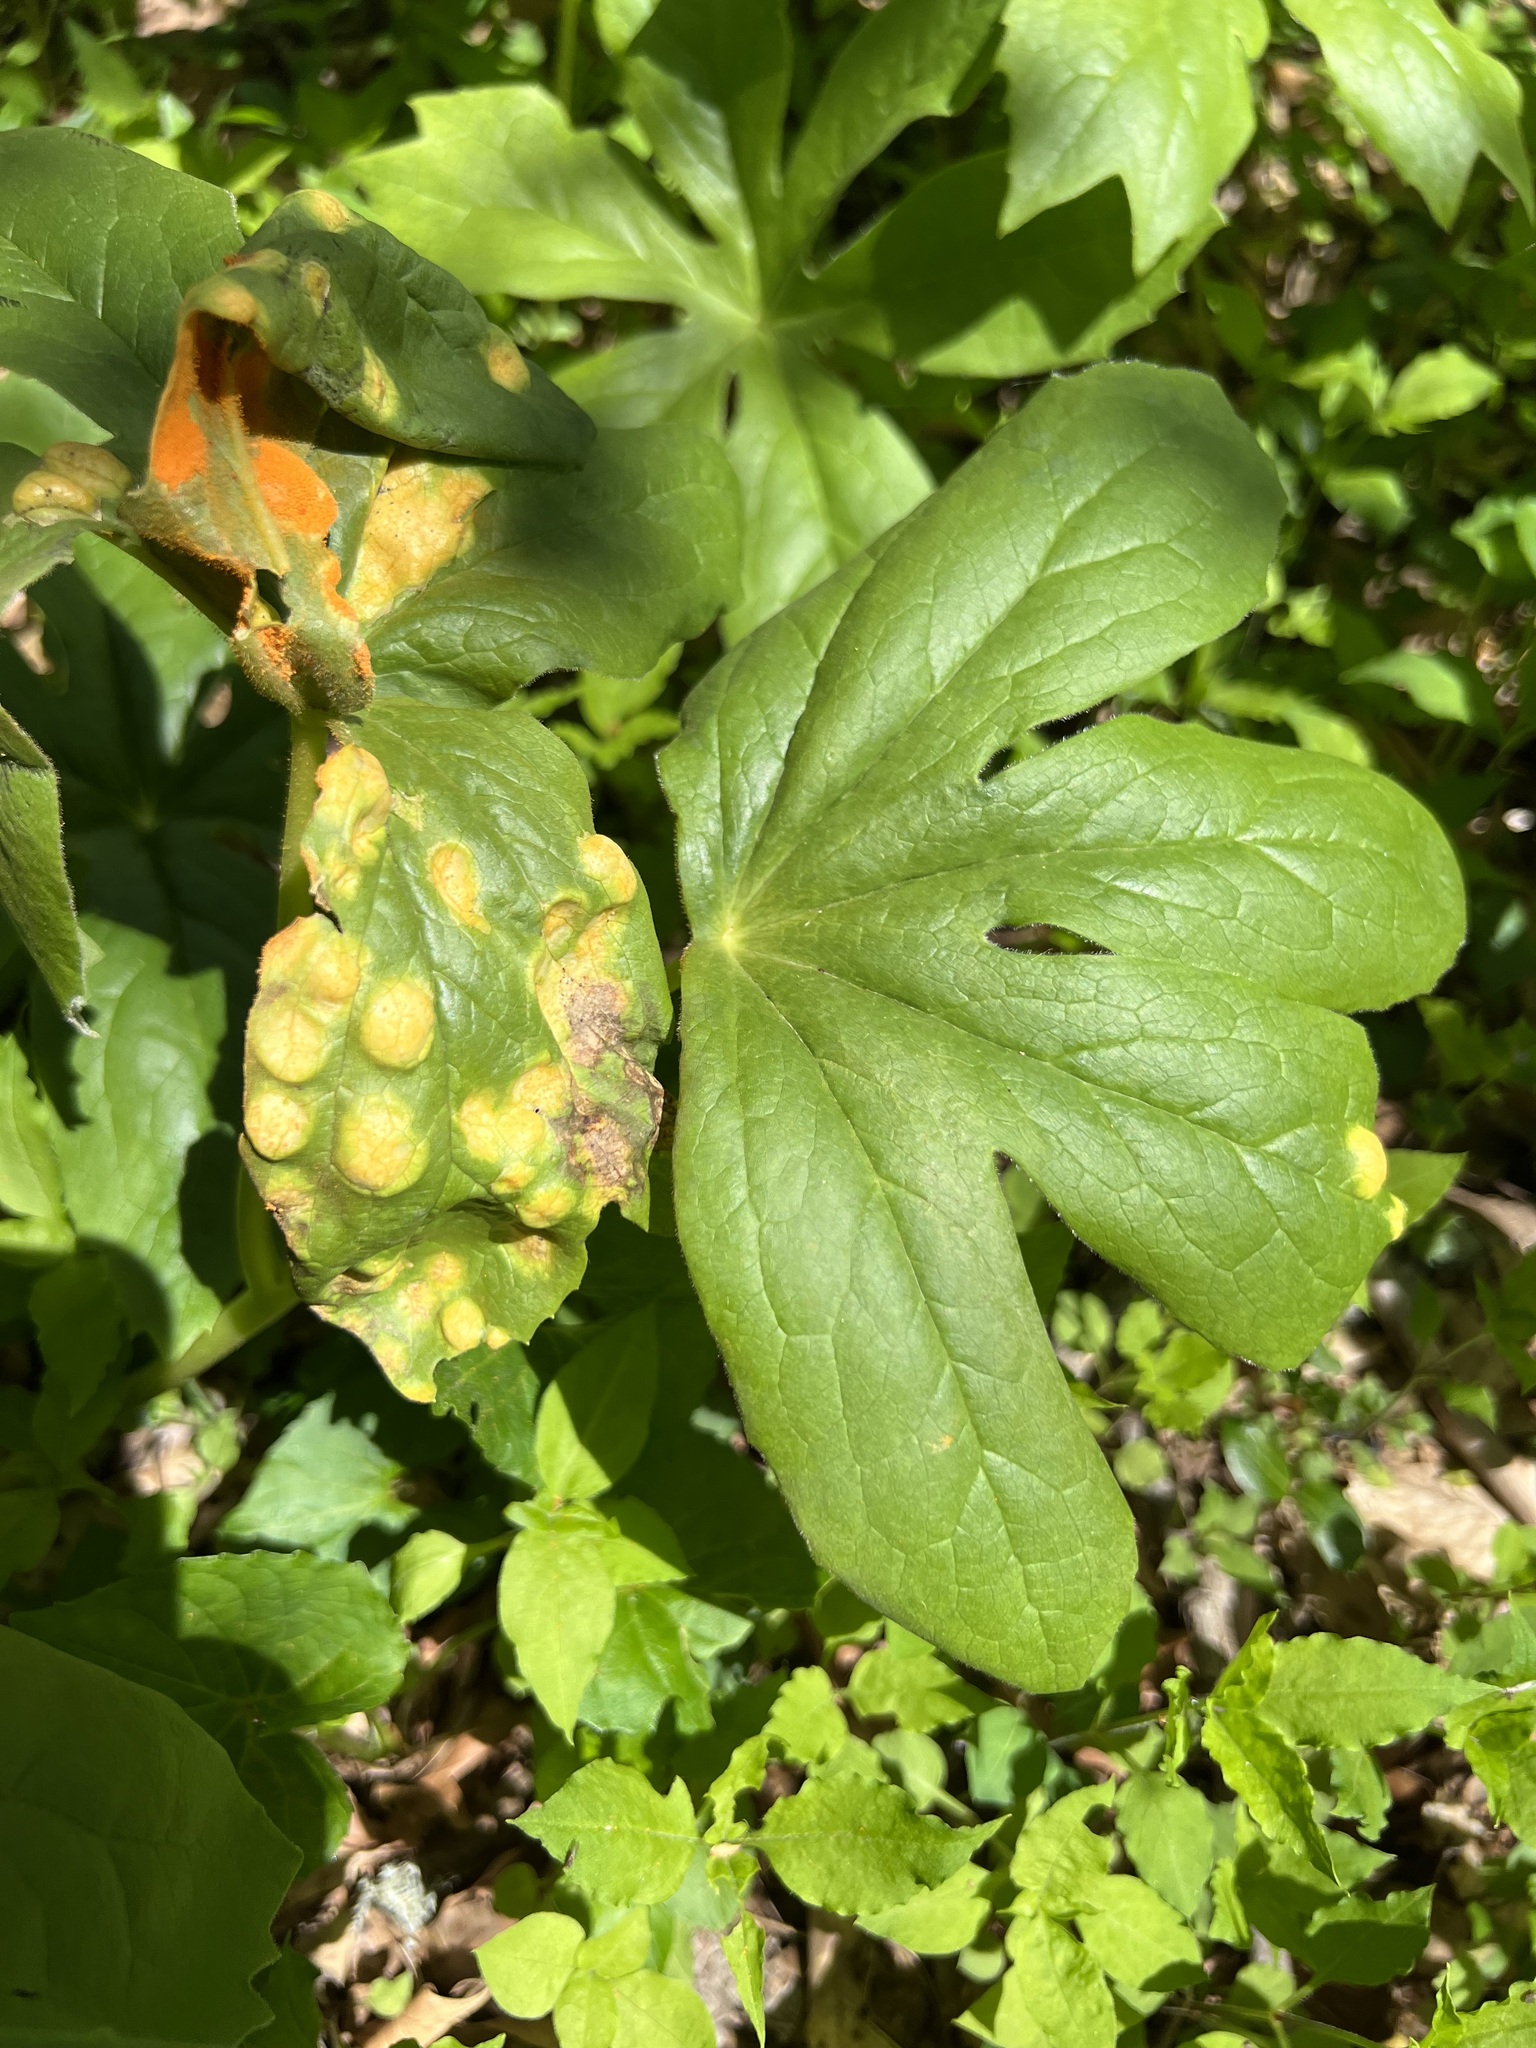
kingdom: Fungi
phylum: Basidiomycota
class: Pucciniomycetes
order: Pucciniales
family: Pucciniaceae
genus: Puccinia
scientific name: Puccinia podophylli
